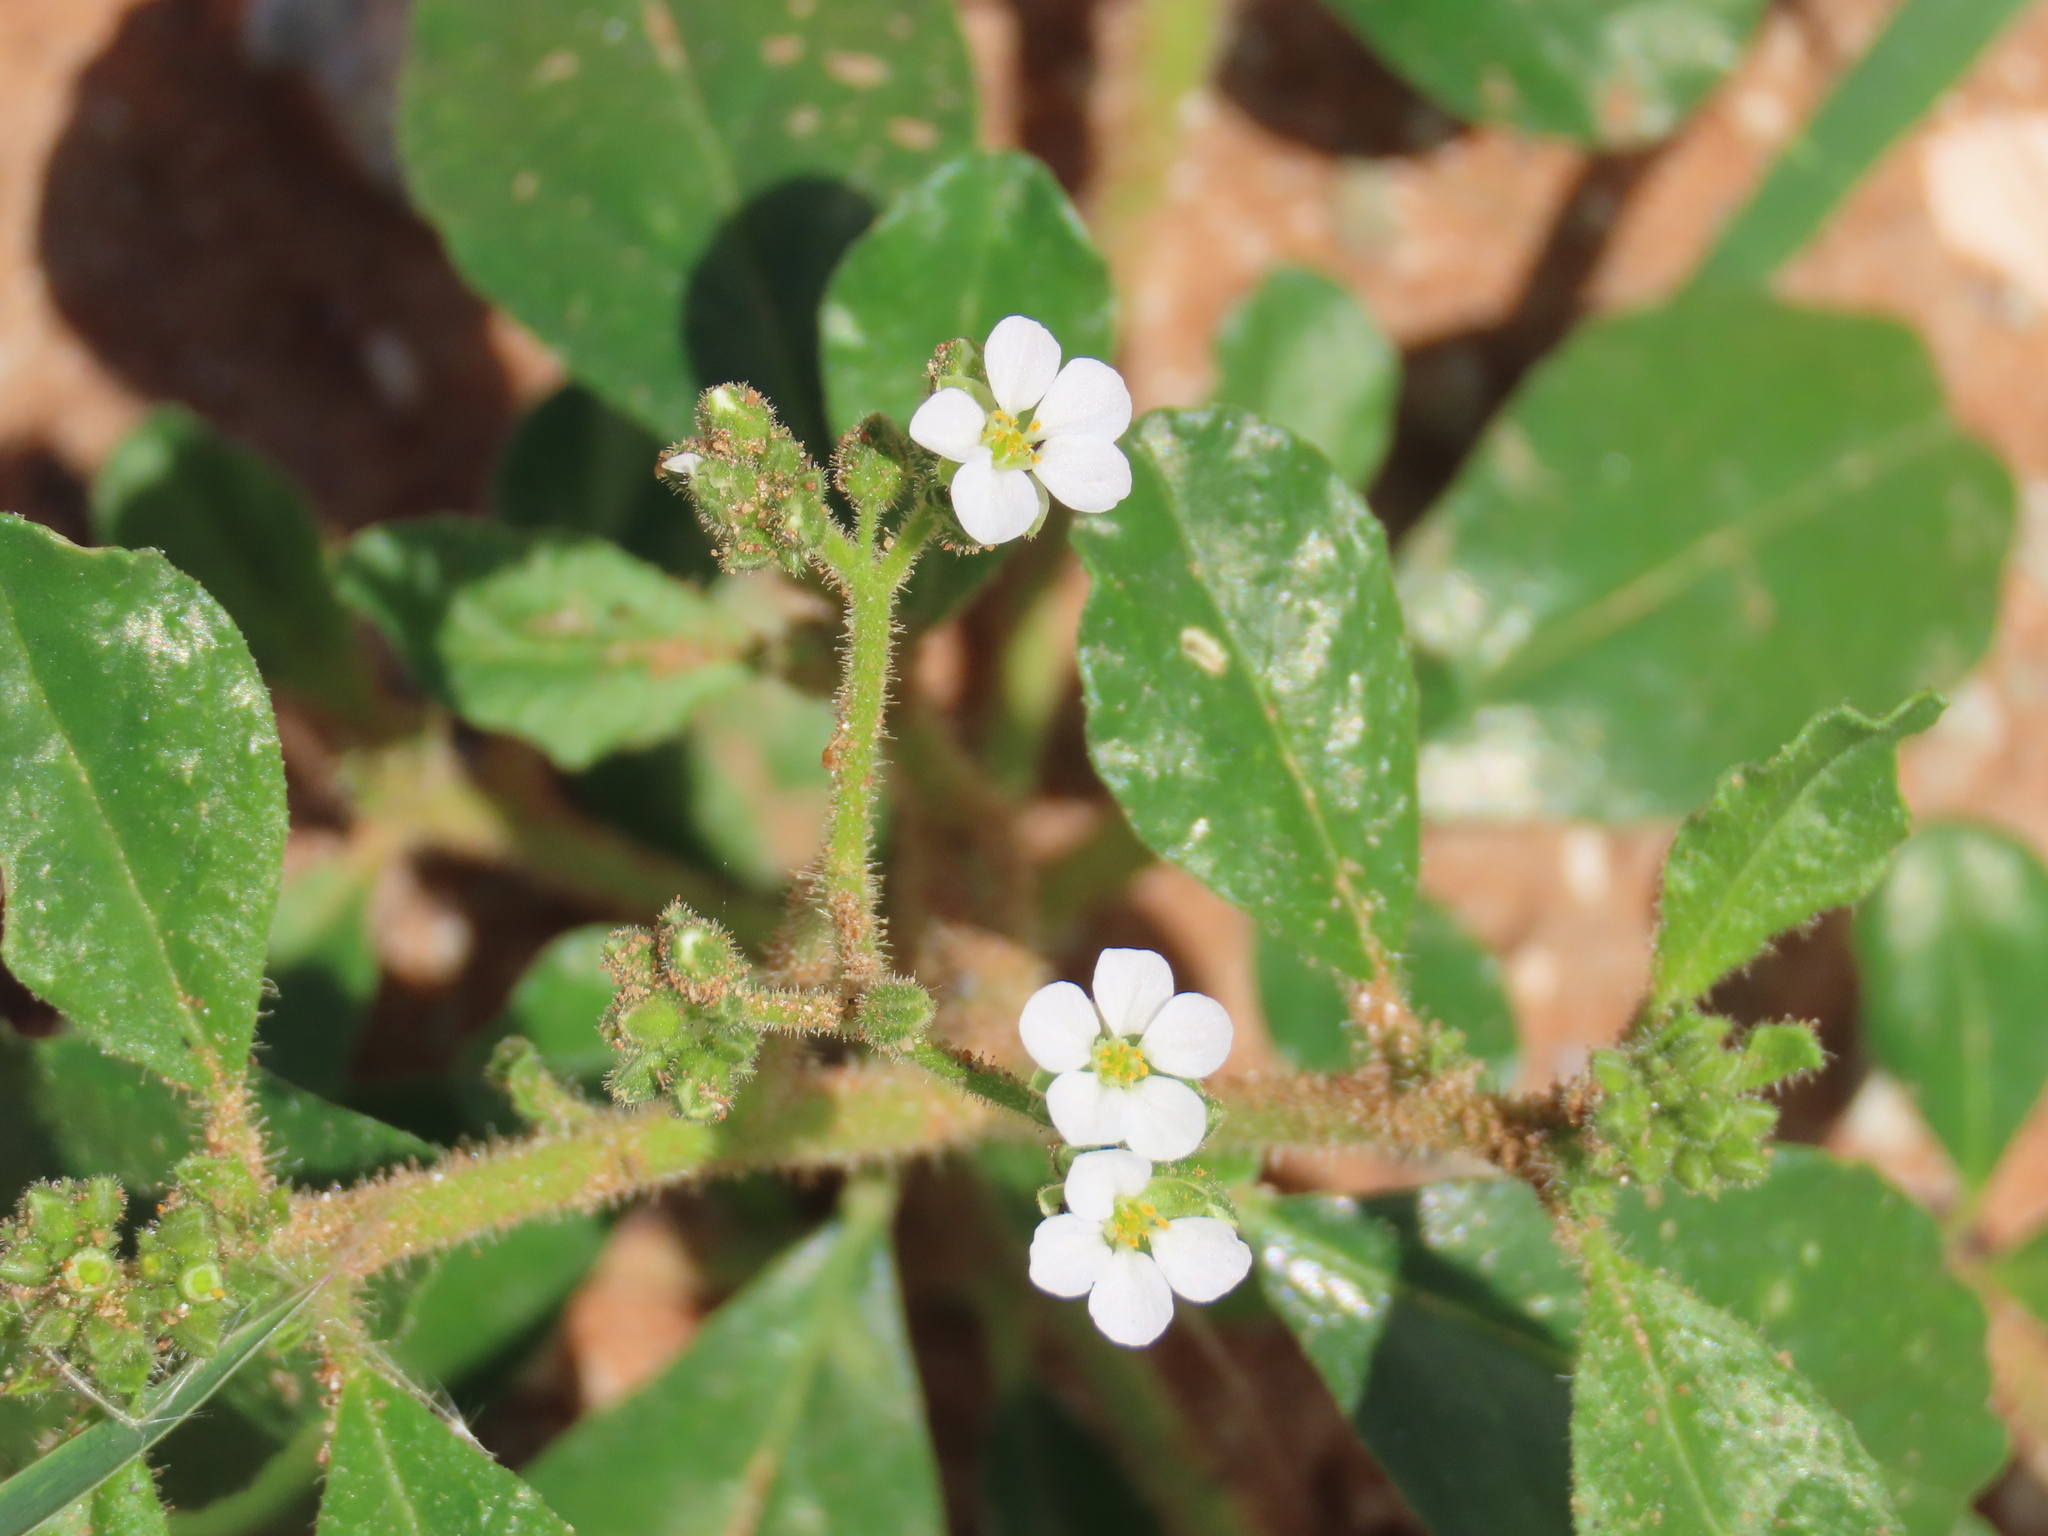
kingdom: Plantae
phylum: Tracheophyta
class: Magnoliopsida
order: Caryophyllales
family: Limeaceae
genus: Limeum
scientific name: Limeum viscosum
